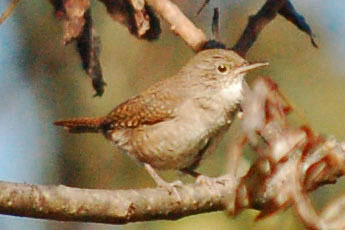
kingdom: Animalia
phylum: Chordata
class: Aves
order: Passeriformes
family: Troglodytidae
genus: Troglodytes
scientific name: Troglodytes aedon
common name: House wren
